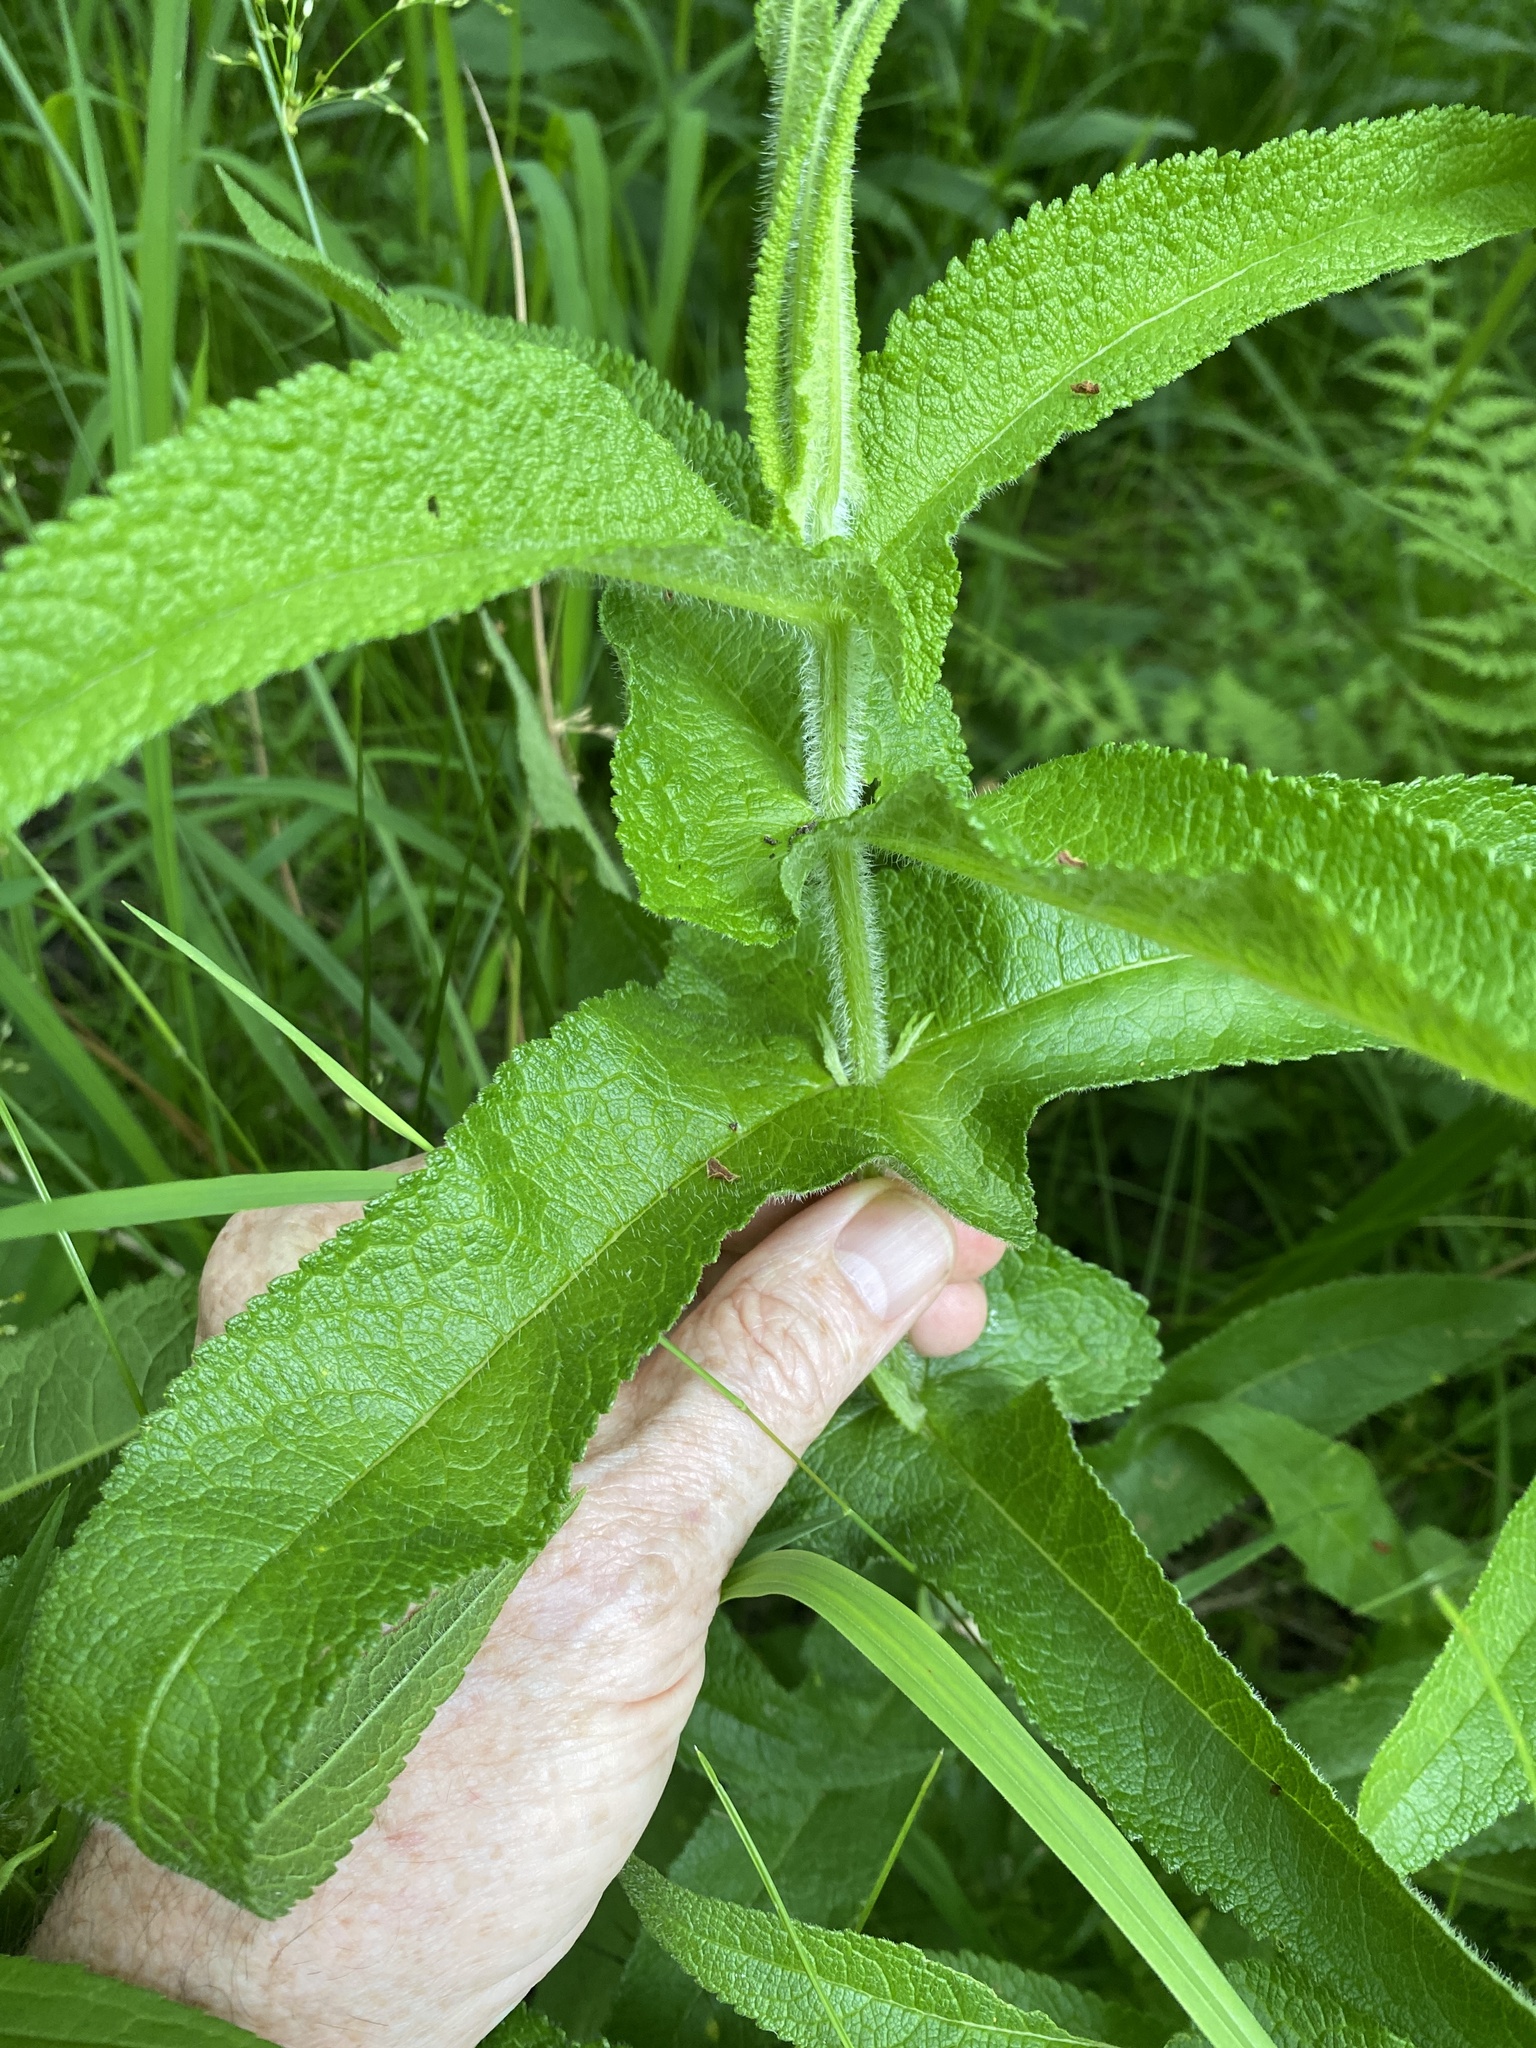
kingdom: Plantae
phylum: Tracheophyta
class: Magnoliopsida
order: Asterales
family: Asteraceae
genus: Eupatorium
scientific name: Eupatorium perfoliatum
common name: Boneset
